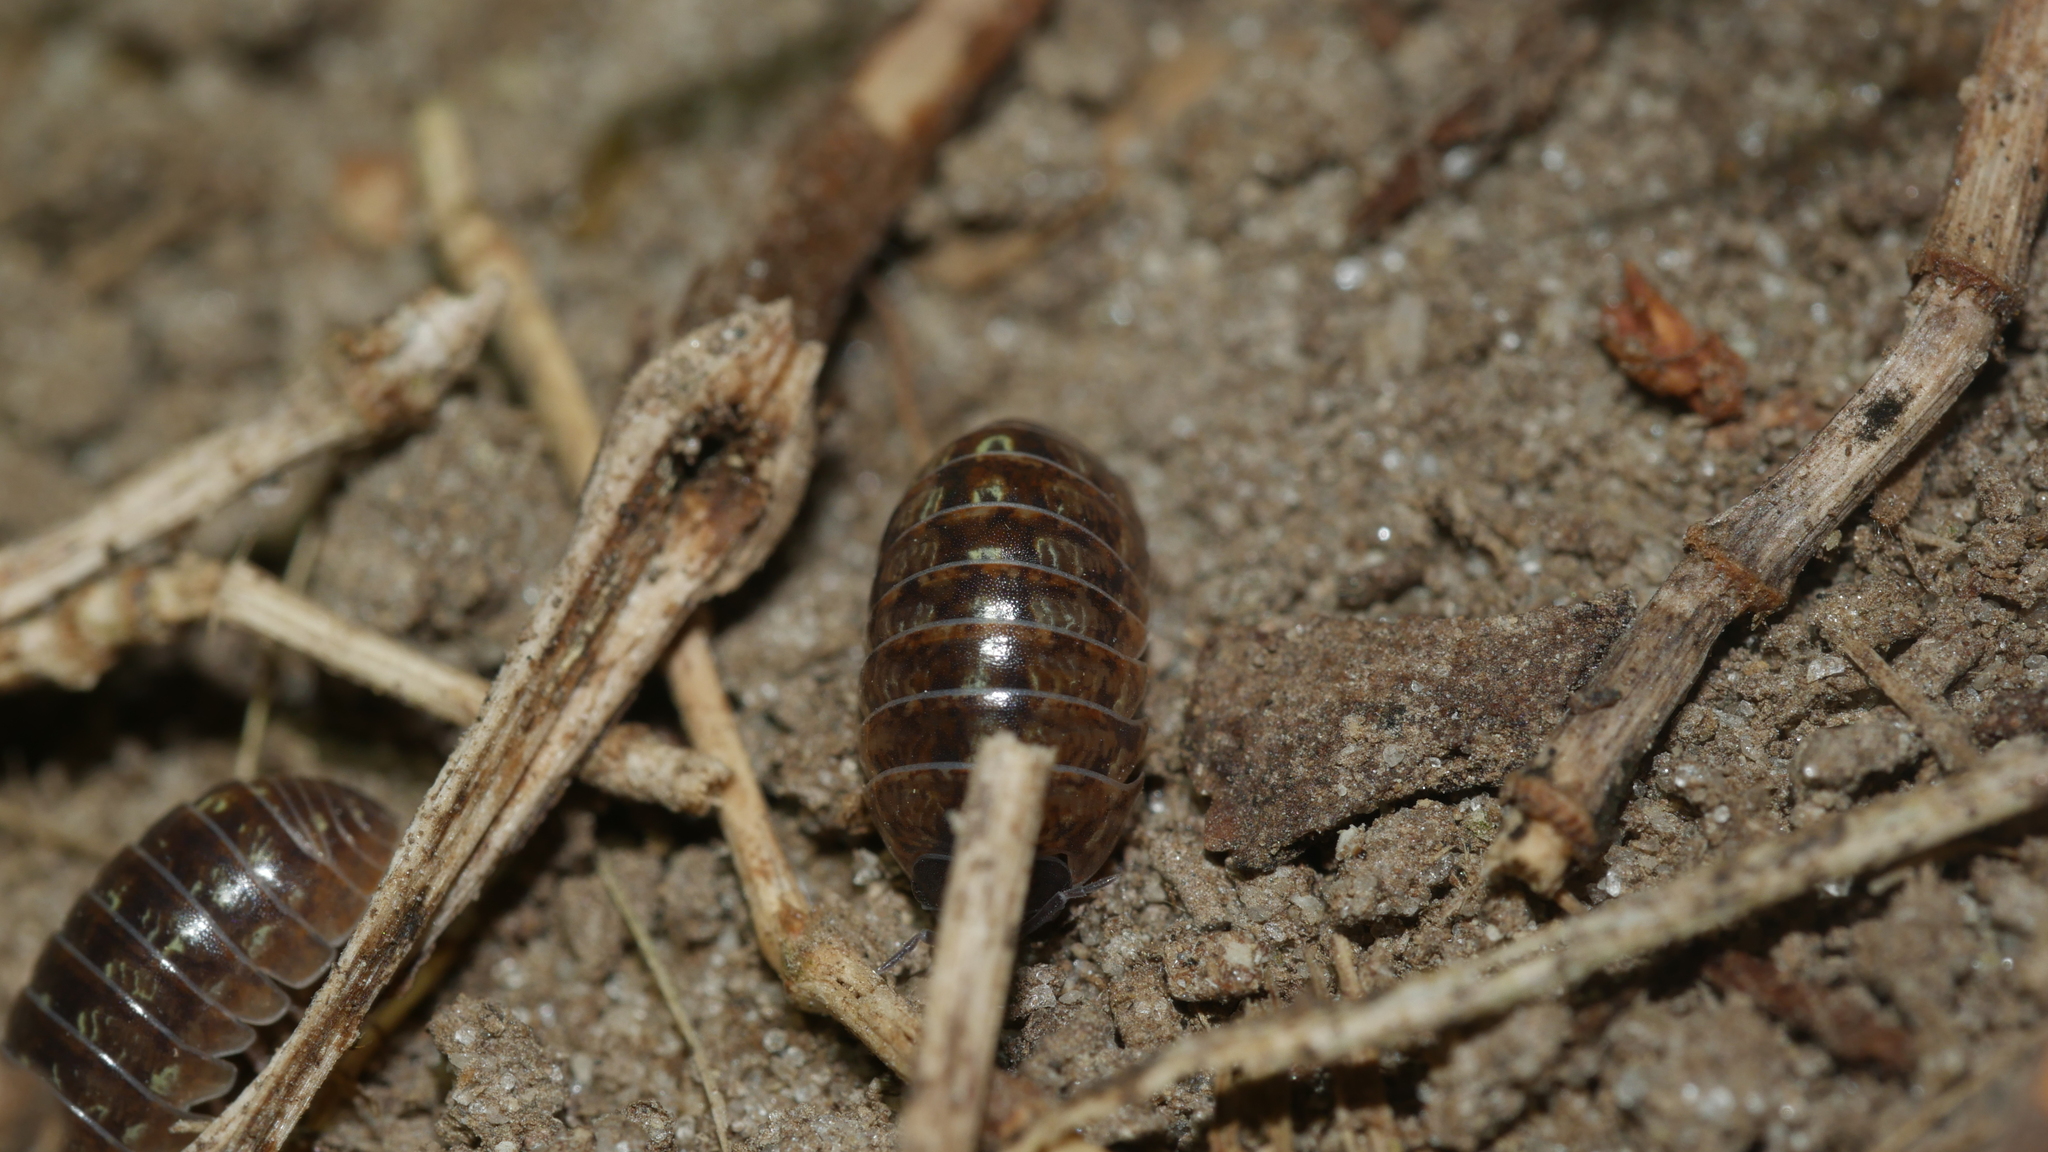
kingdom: Animalia
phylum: Arthropoda
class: Malacostraca
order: Isopoda
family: Armadillidiidae
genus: Armadillidium
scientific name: Armadillidium vulgare
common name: Common pill woodlouse
